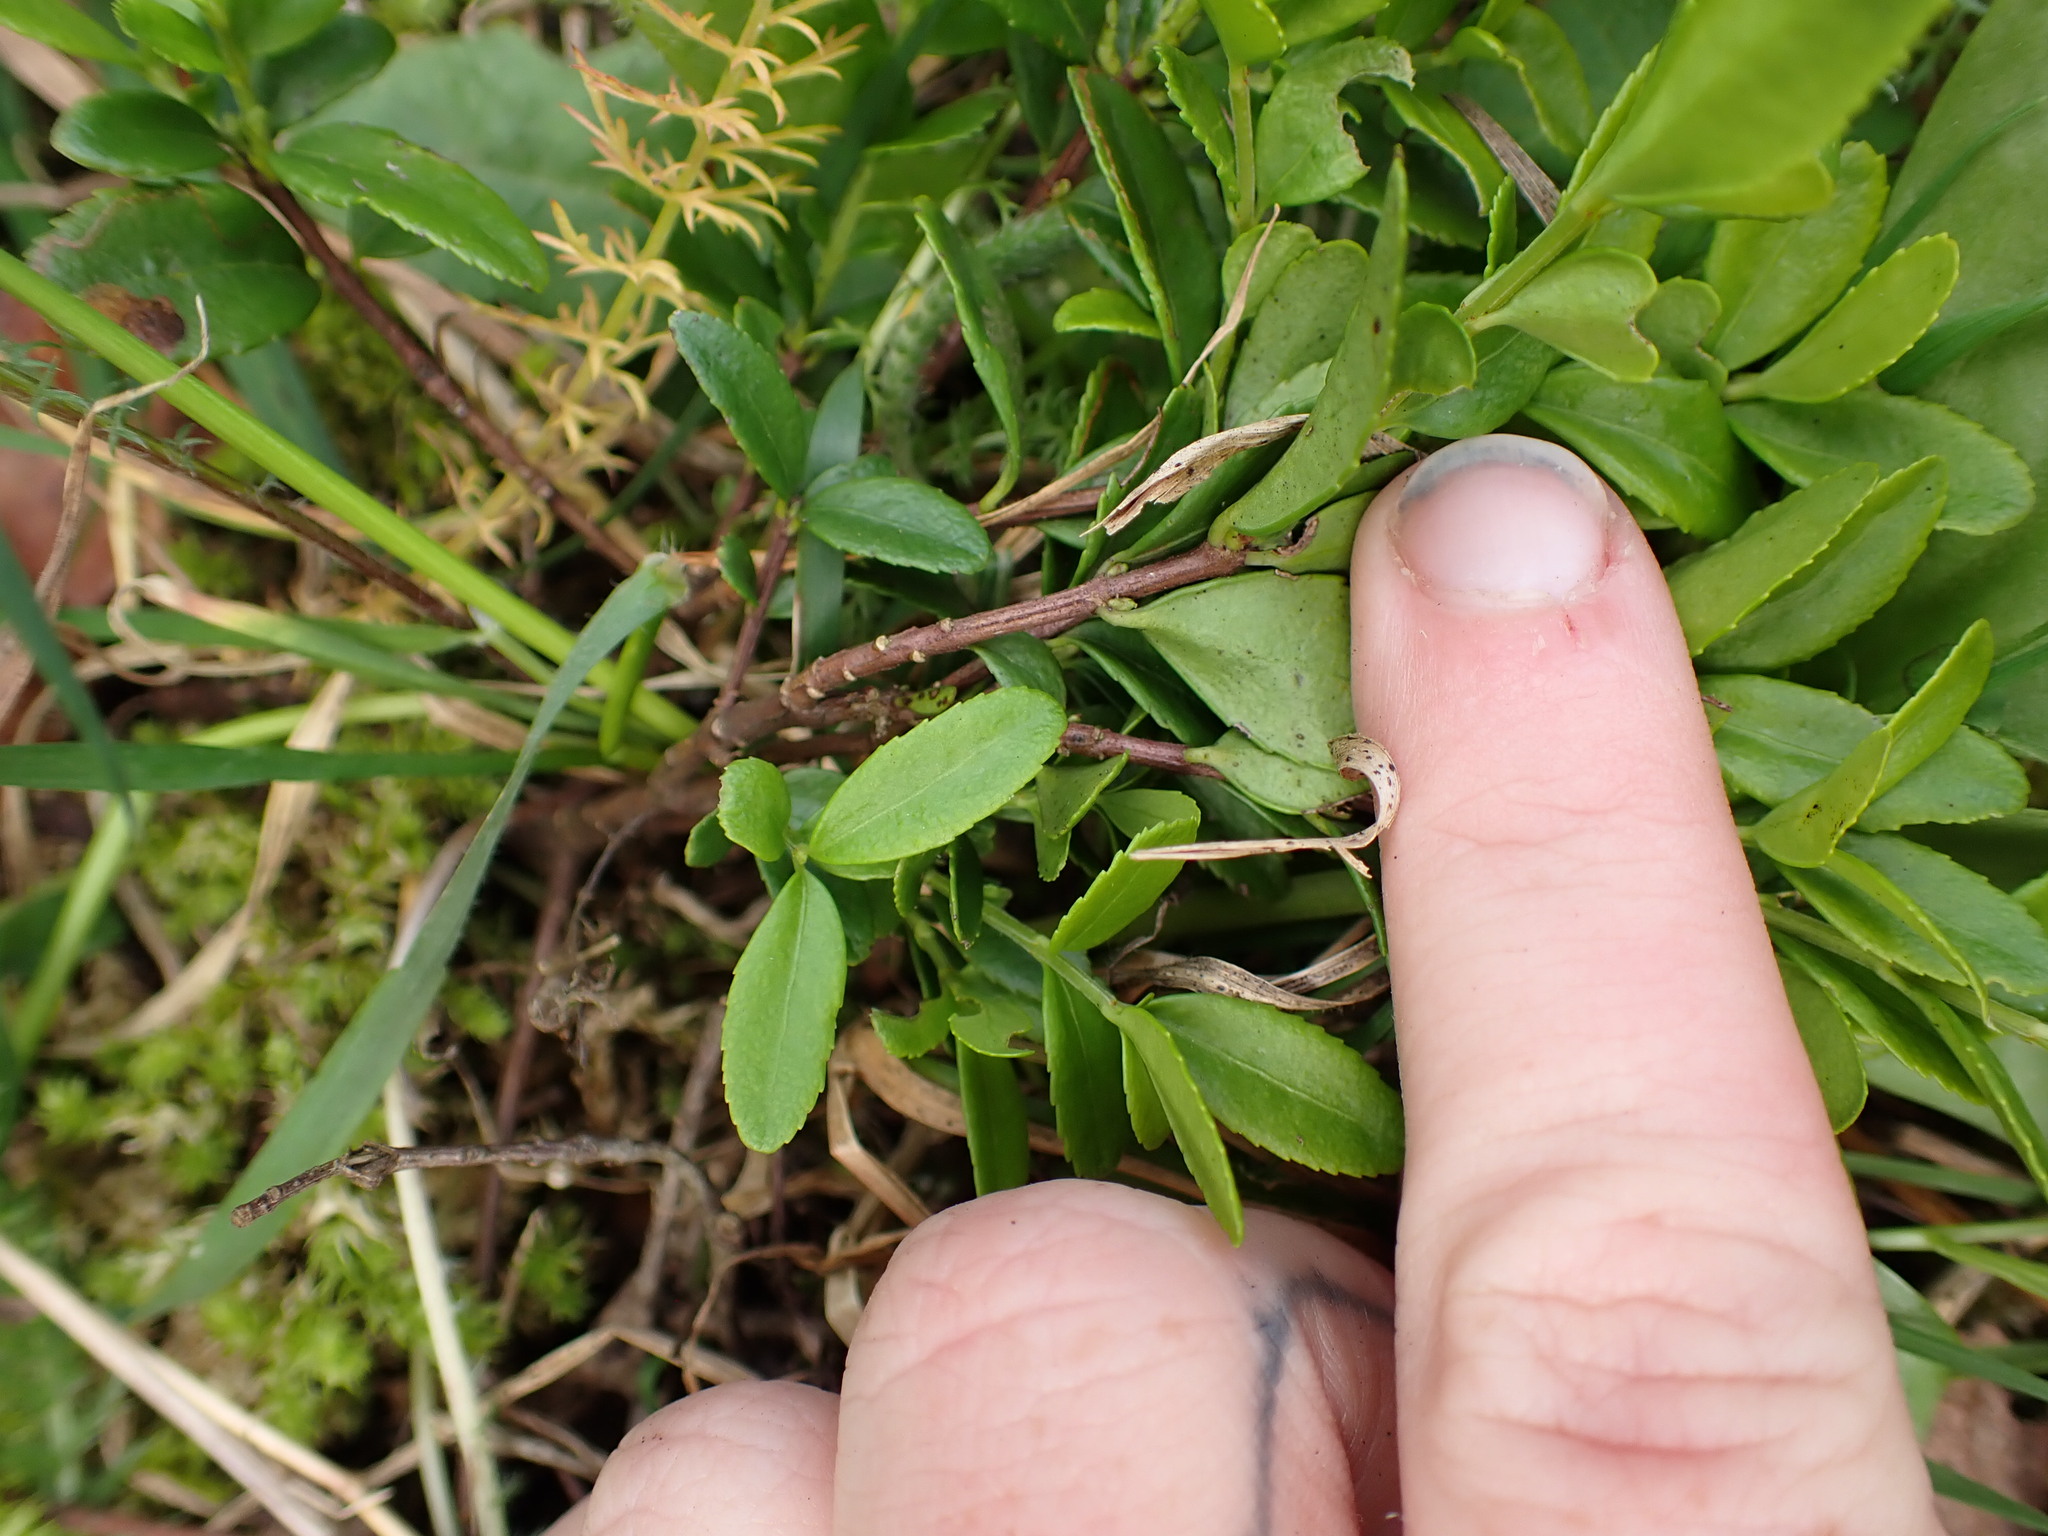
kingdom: Plantae
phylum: Tracheophyta
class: Magnoliopsida
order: Celastrales
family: Celastraceae
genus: Paxistima
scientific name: Paxistima myrsinites
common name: Mountain-lover
